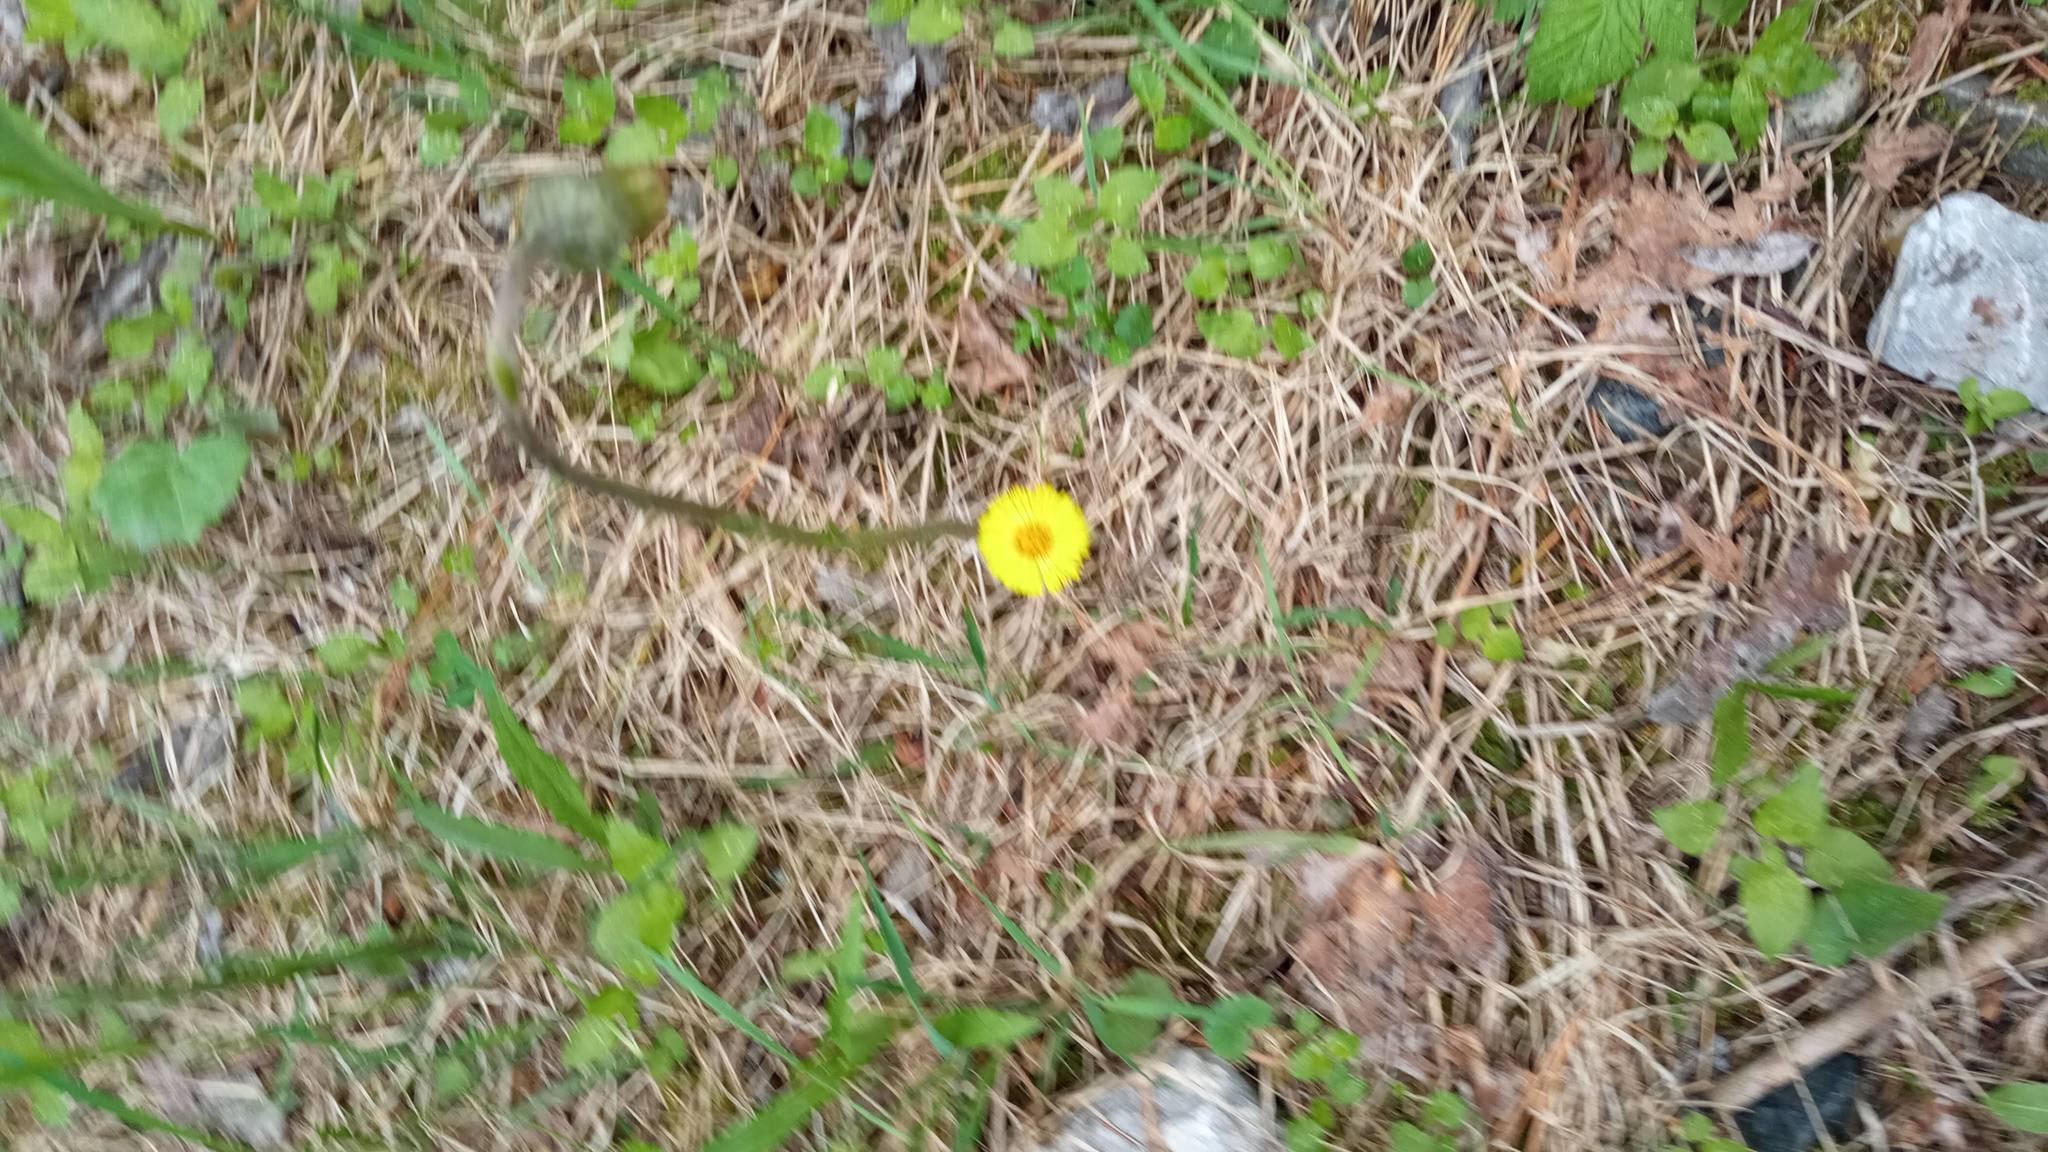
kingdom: Plantae
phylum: Tracheophyta
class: Magnoliopsida
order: Asterales
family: Asteraceae
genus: Tussilago
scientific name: Tussilago farfara
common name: Coltsfoot
